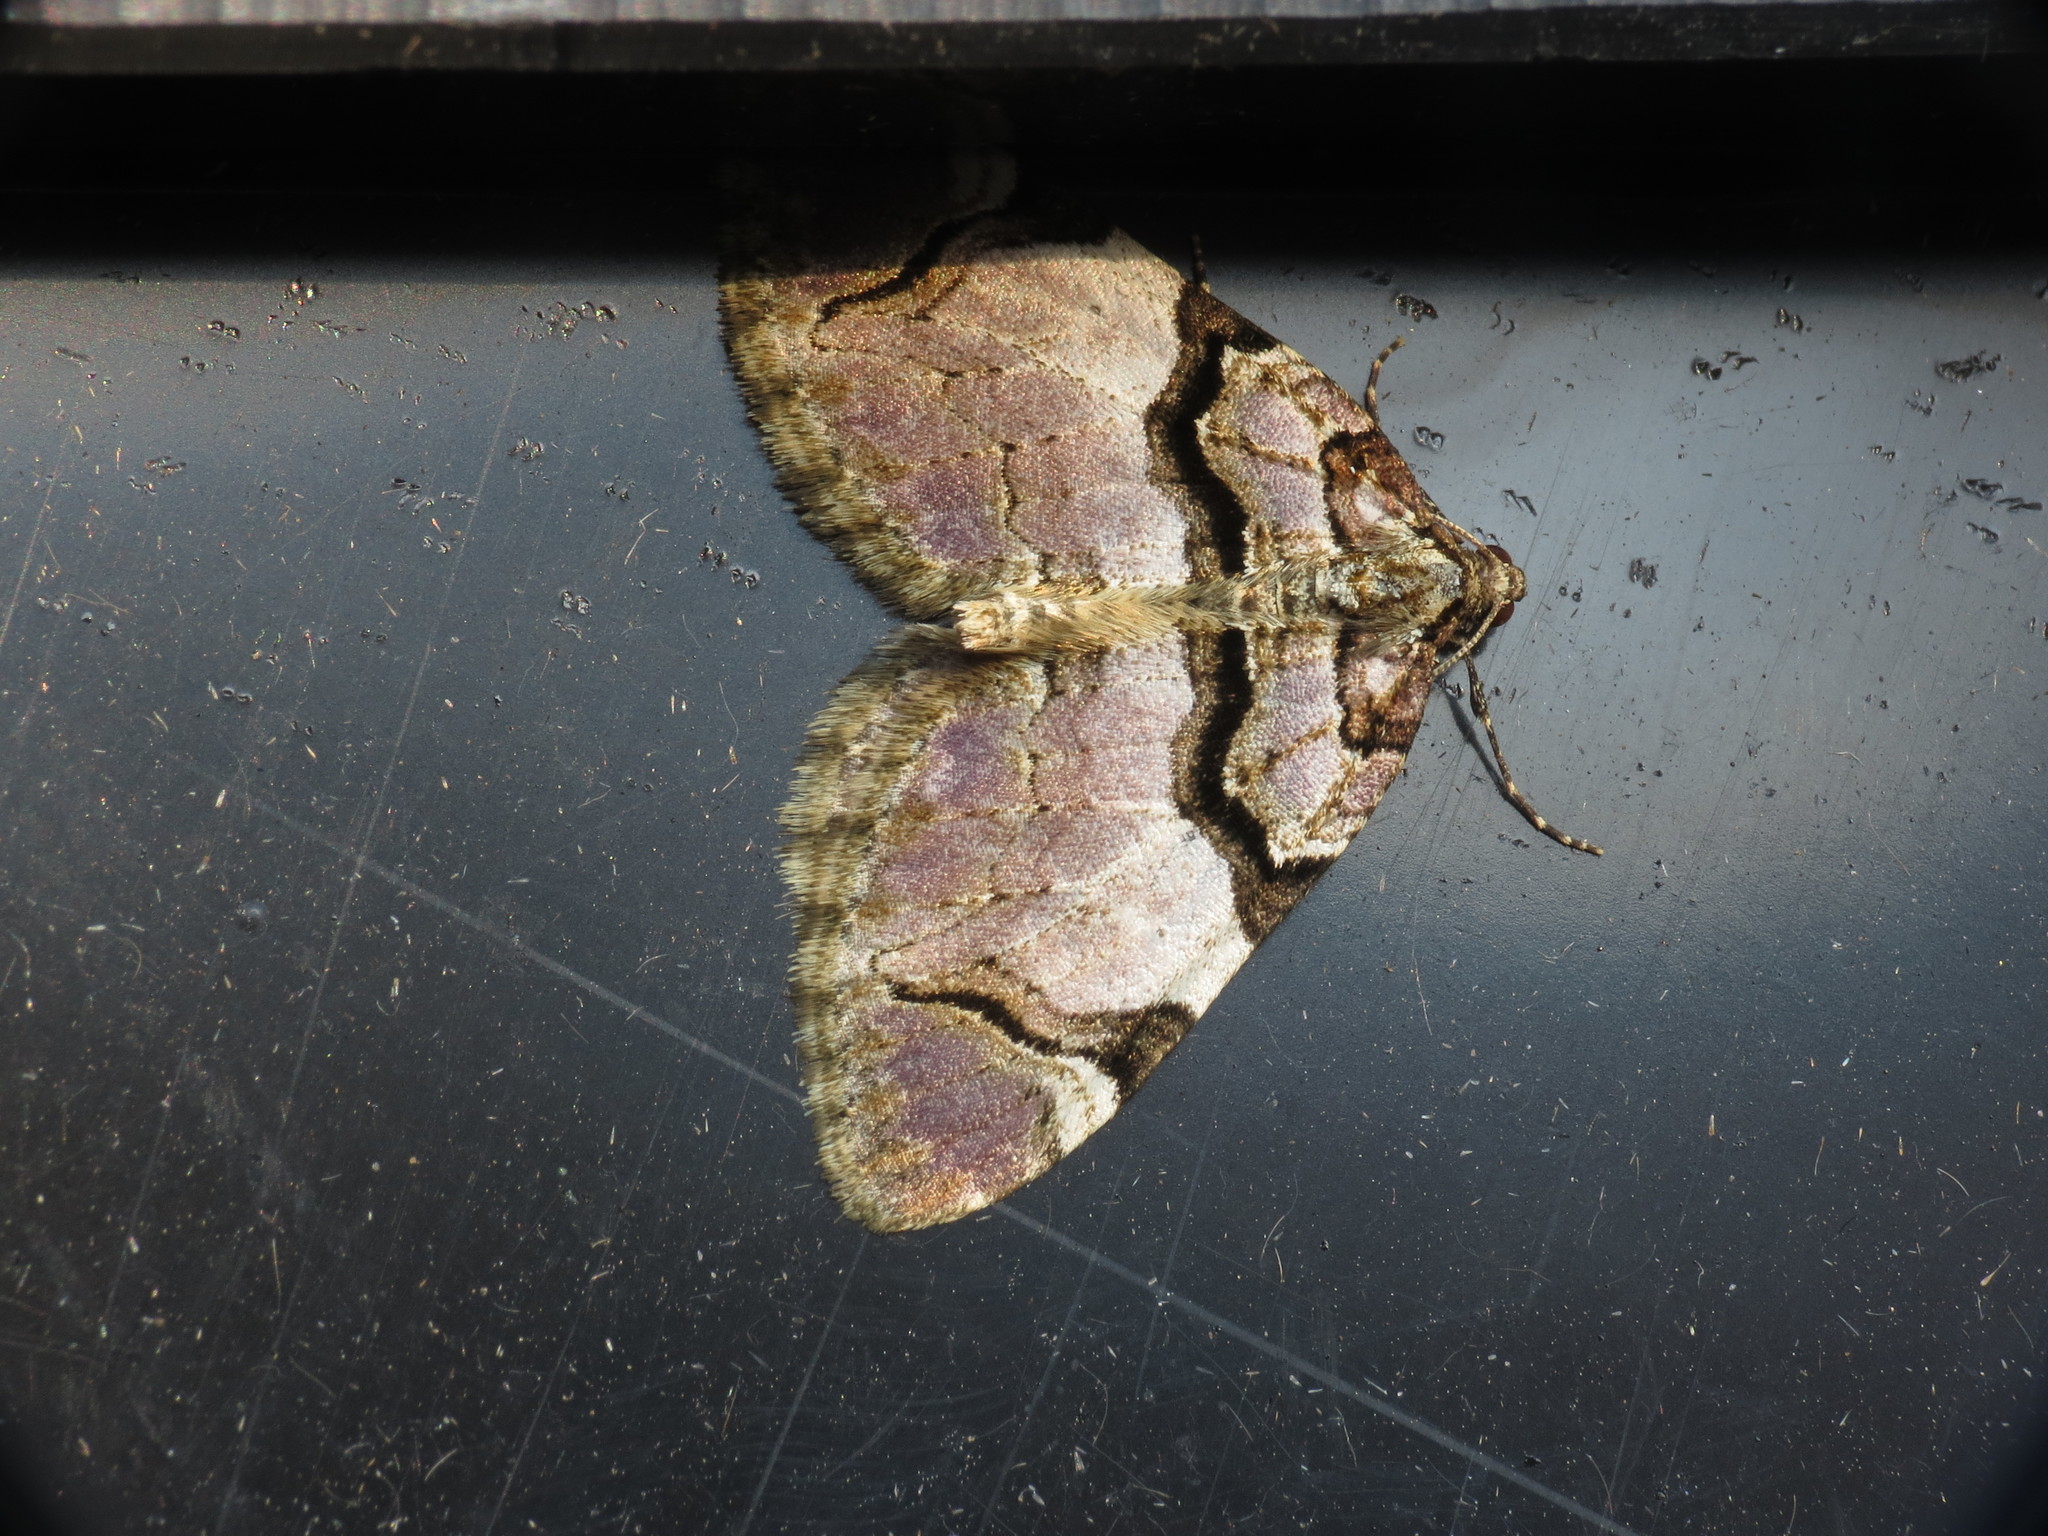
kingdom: Animalia
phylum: Arthropoda
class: Insecta
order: Lepidoptera
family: Geometridae
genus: Anticlea
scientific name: Anticlea derivata
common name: Streamer
